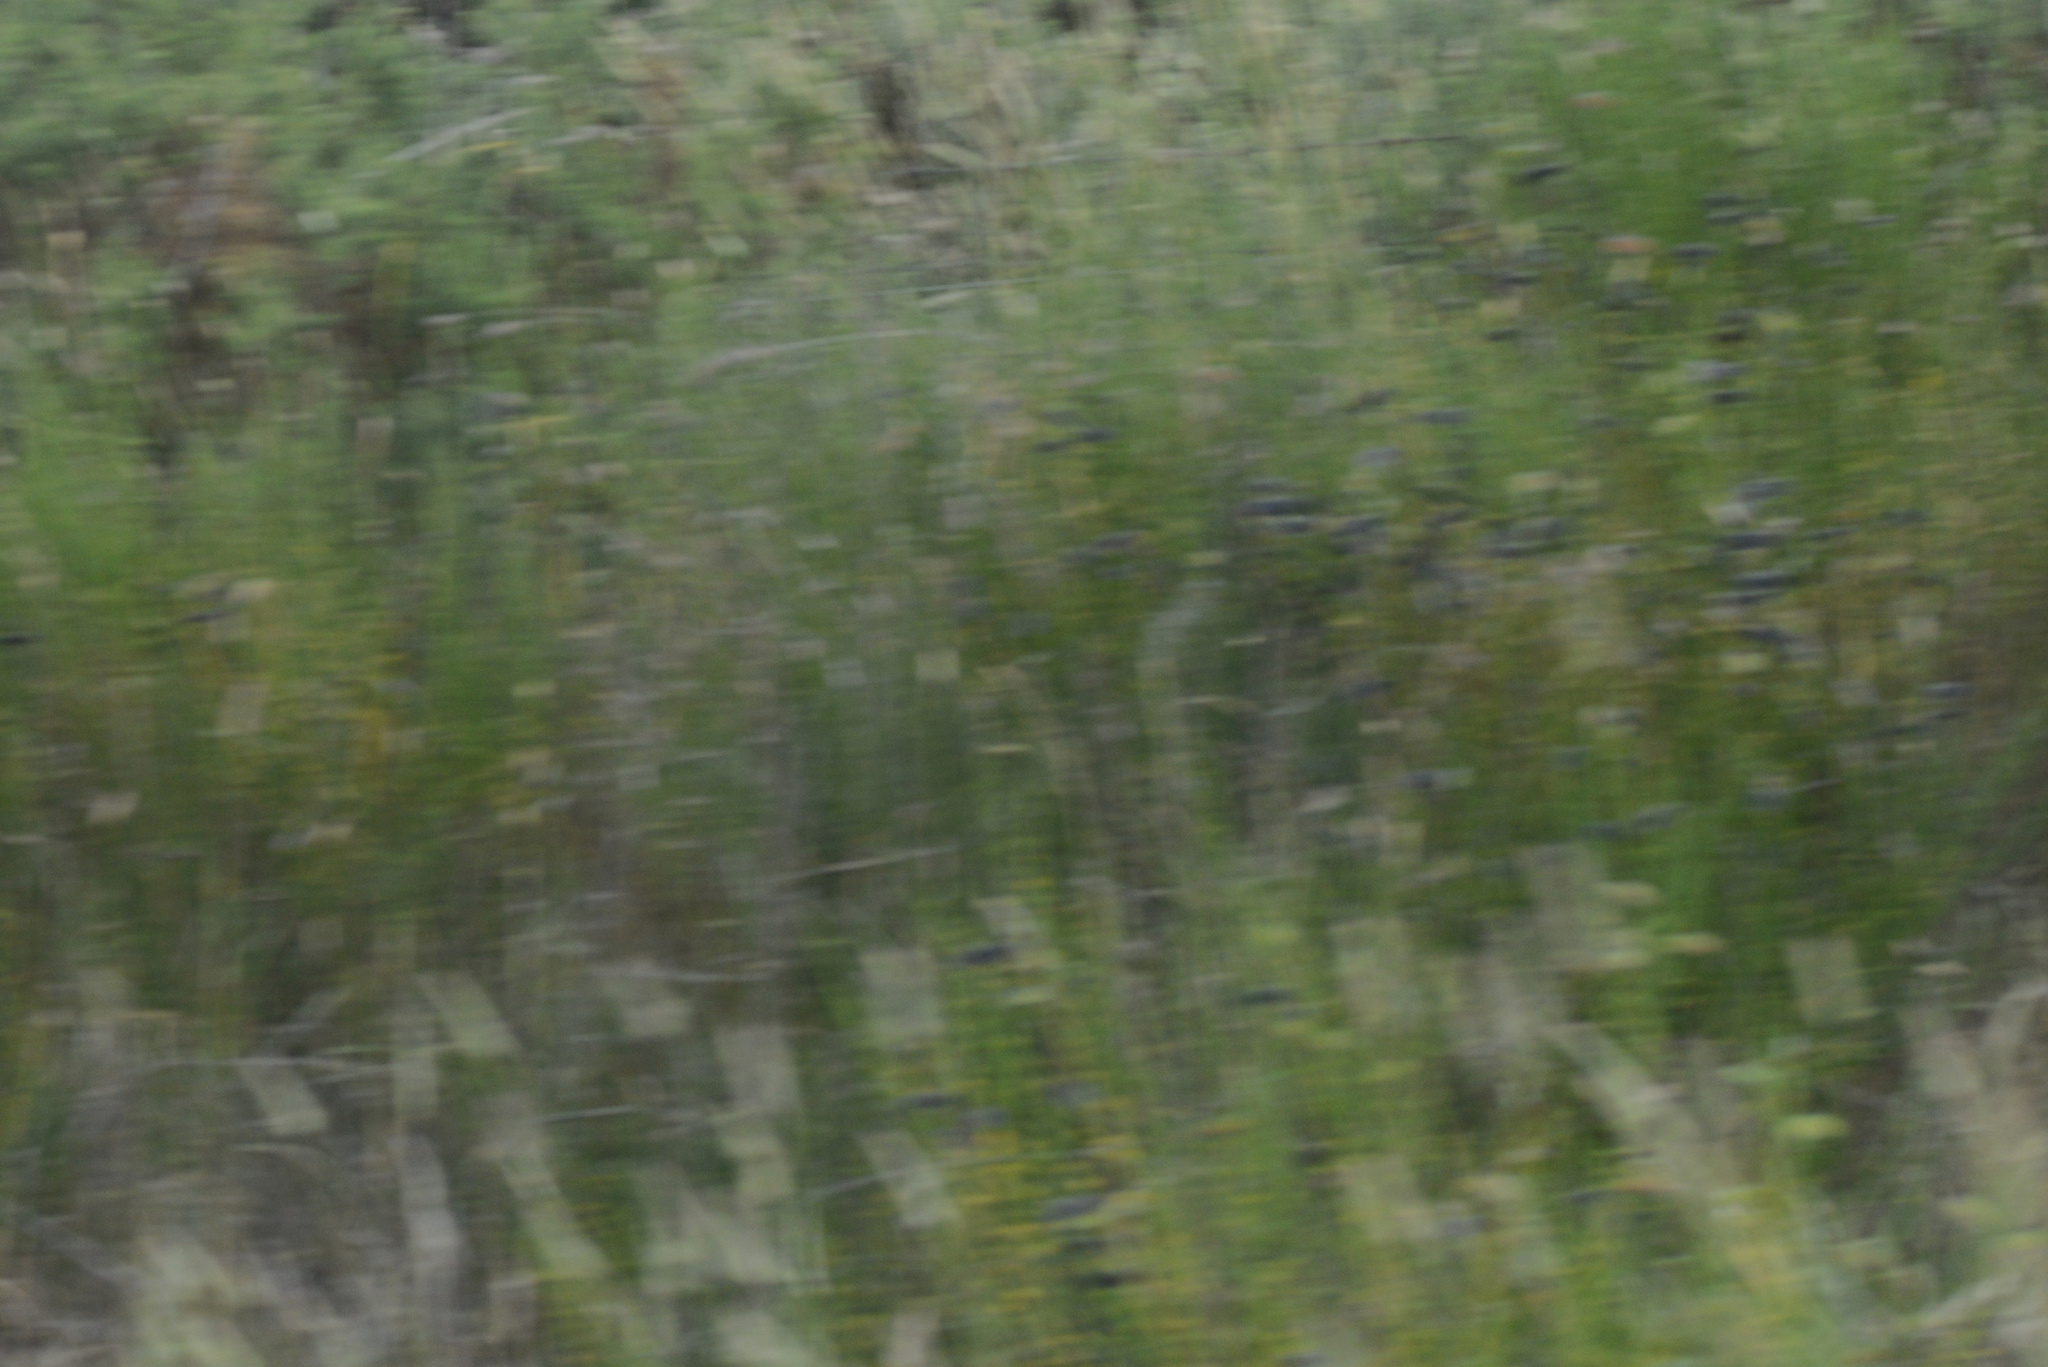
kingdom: Plantae
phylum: Tracheophyta
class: Magnoliopsida
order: Fabales
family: Fabaceae
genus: Cytisus
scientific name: Cytisus scoparius
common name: Scotch broom
